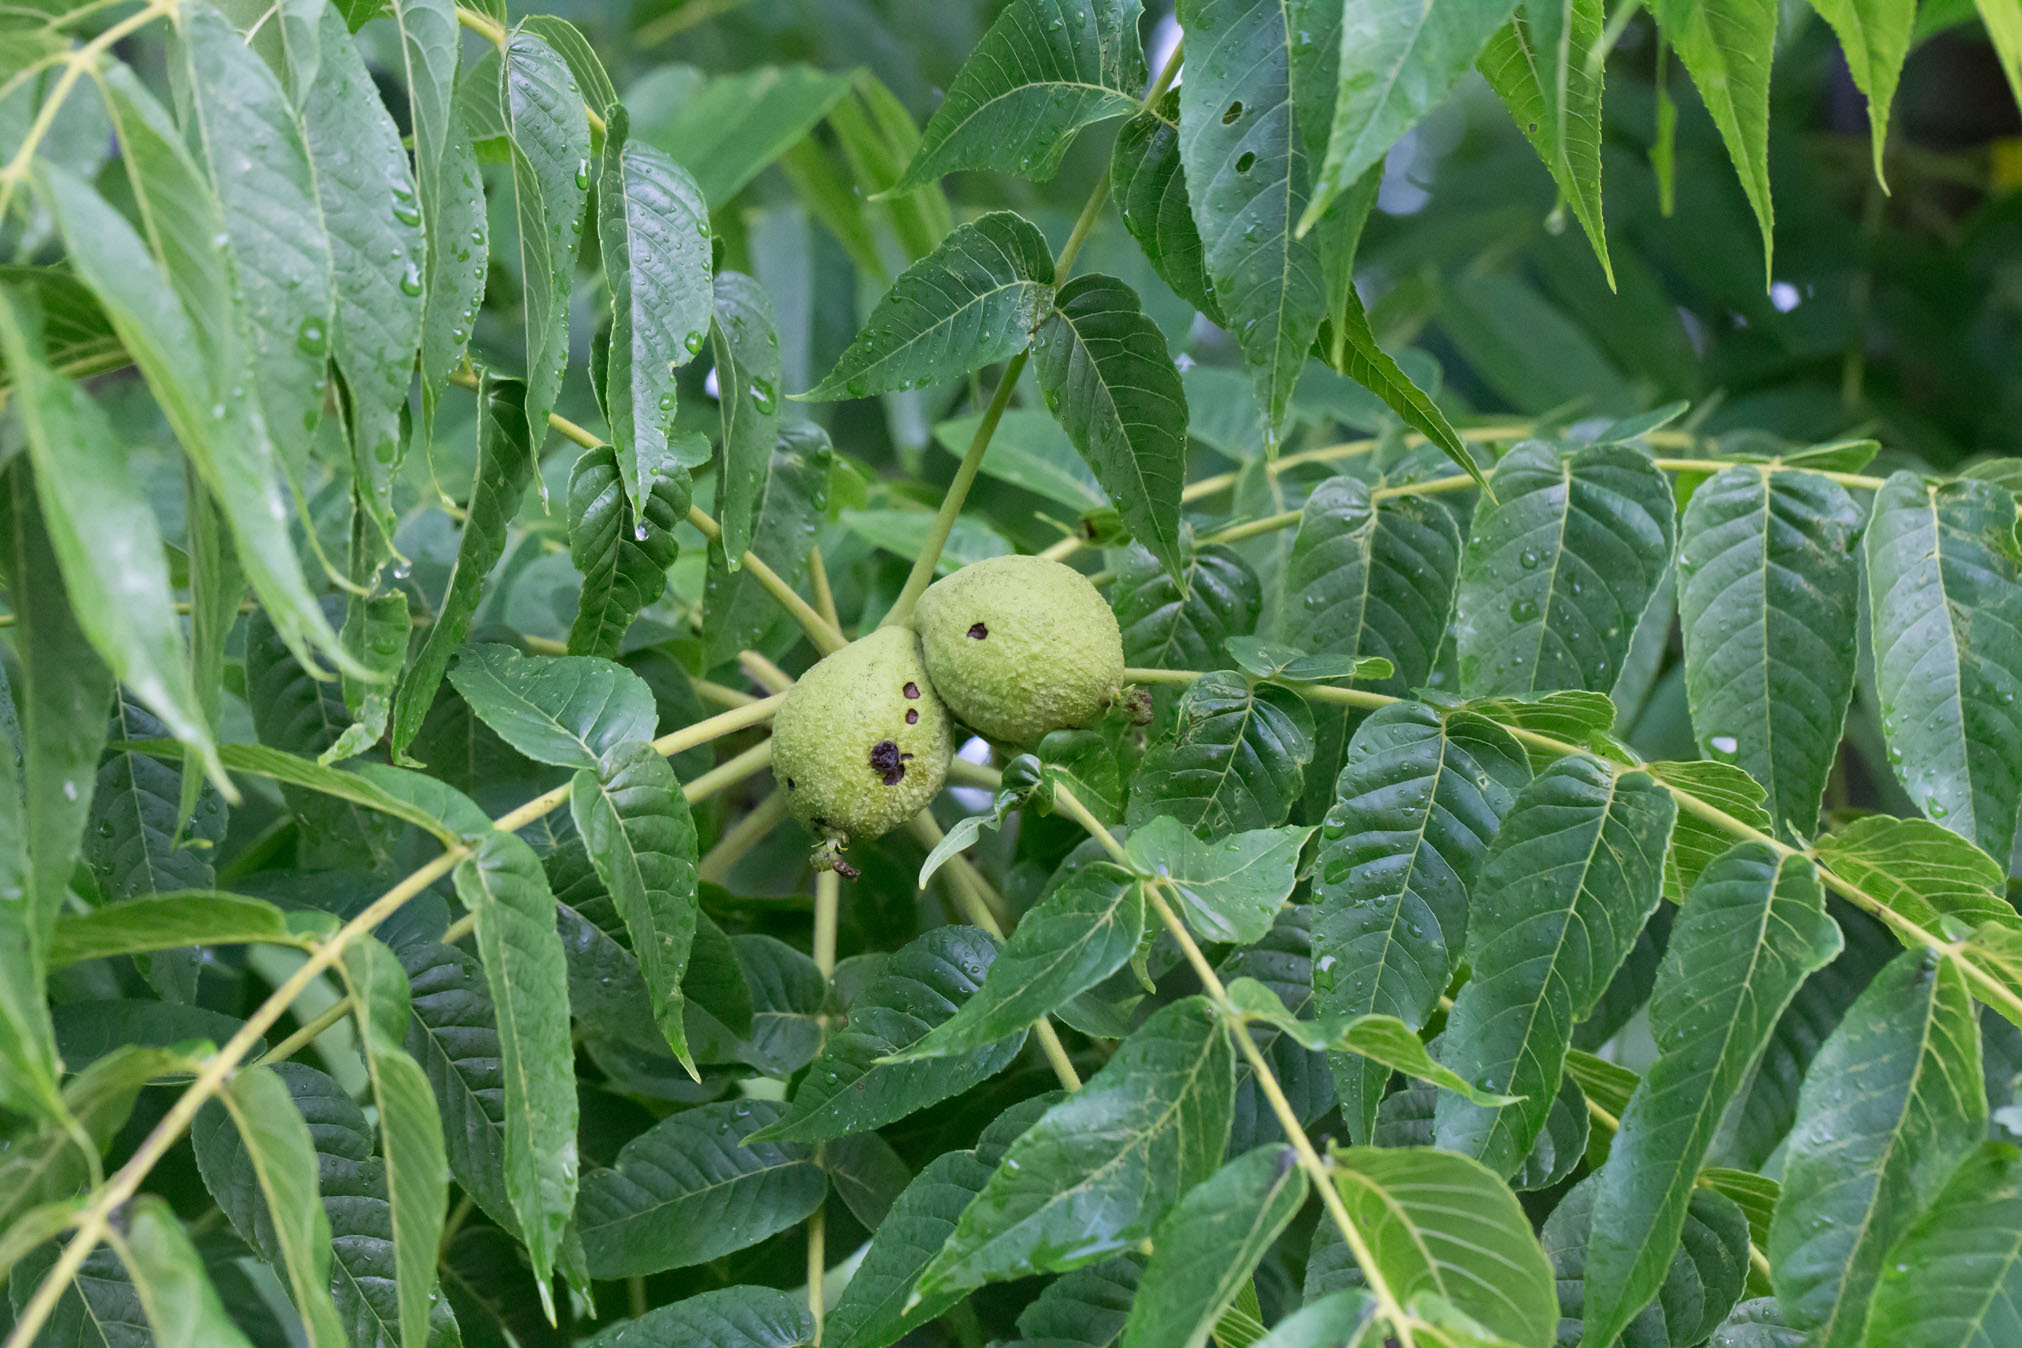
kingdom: Plantae
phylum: Tracheophyta
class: Magnoliopsida
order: Fagales
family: Juglandaceae
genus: Juglans
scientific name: Juglans nigra
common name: Black walnut
